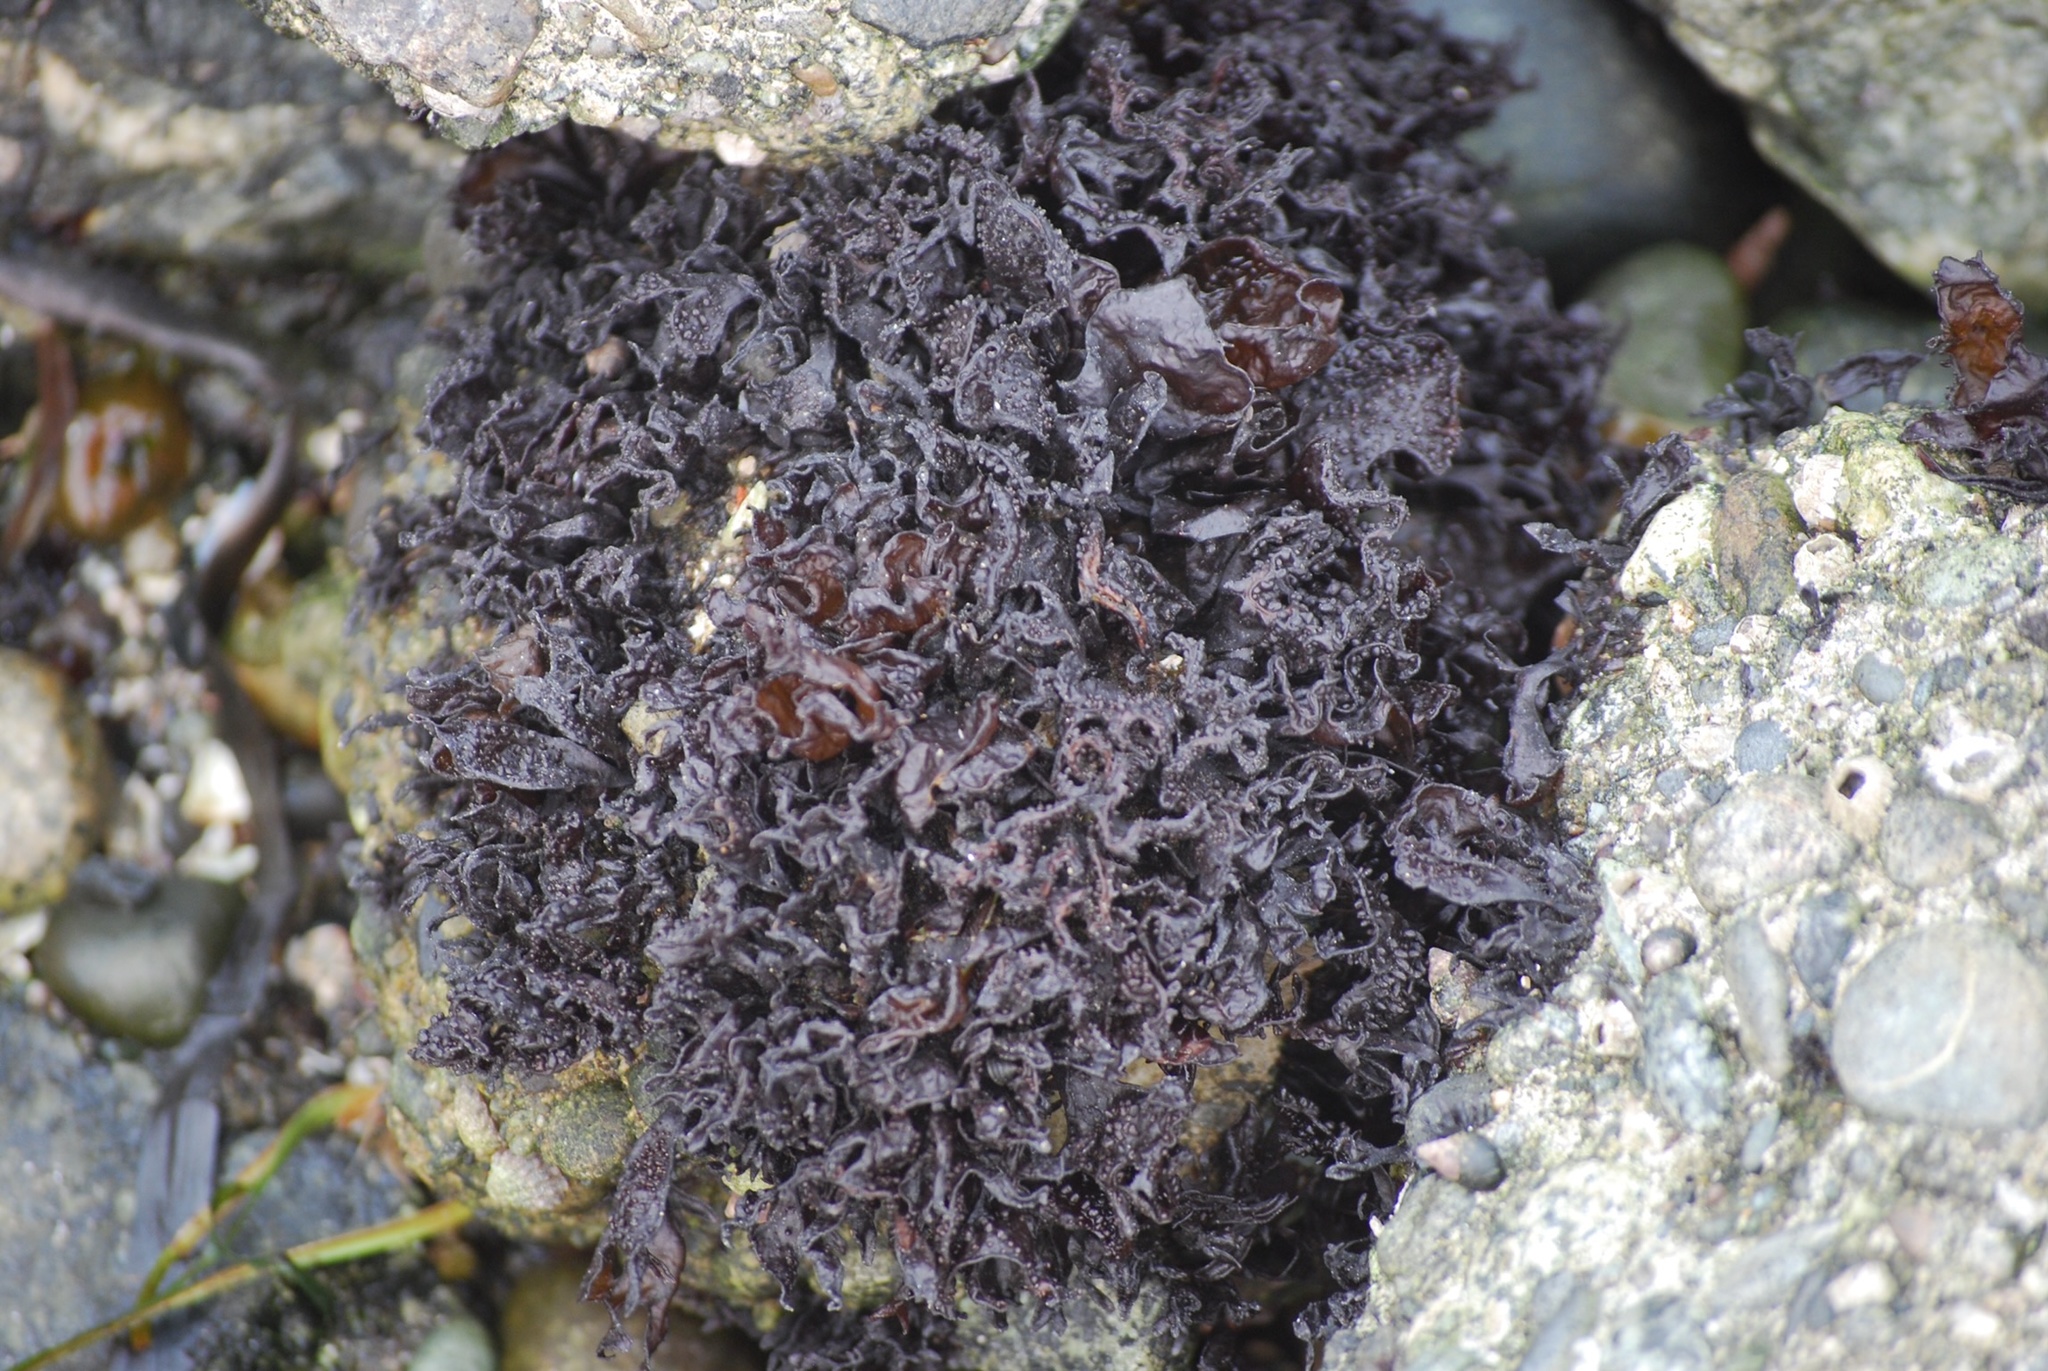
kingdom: Plantae
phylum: Rhodophyta
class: Florideophyceae
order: Gigartinales
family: Phyllophoraceae
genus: Mastocarpus
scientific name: Mastocarpus papillatus
